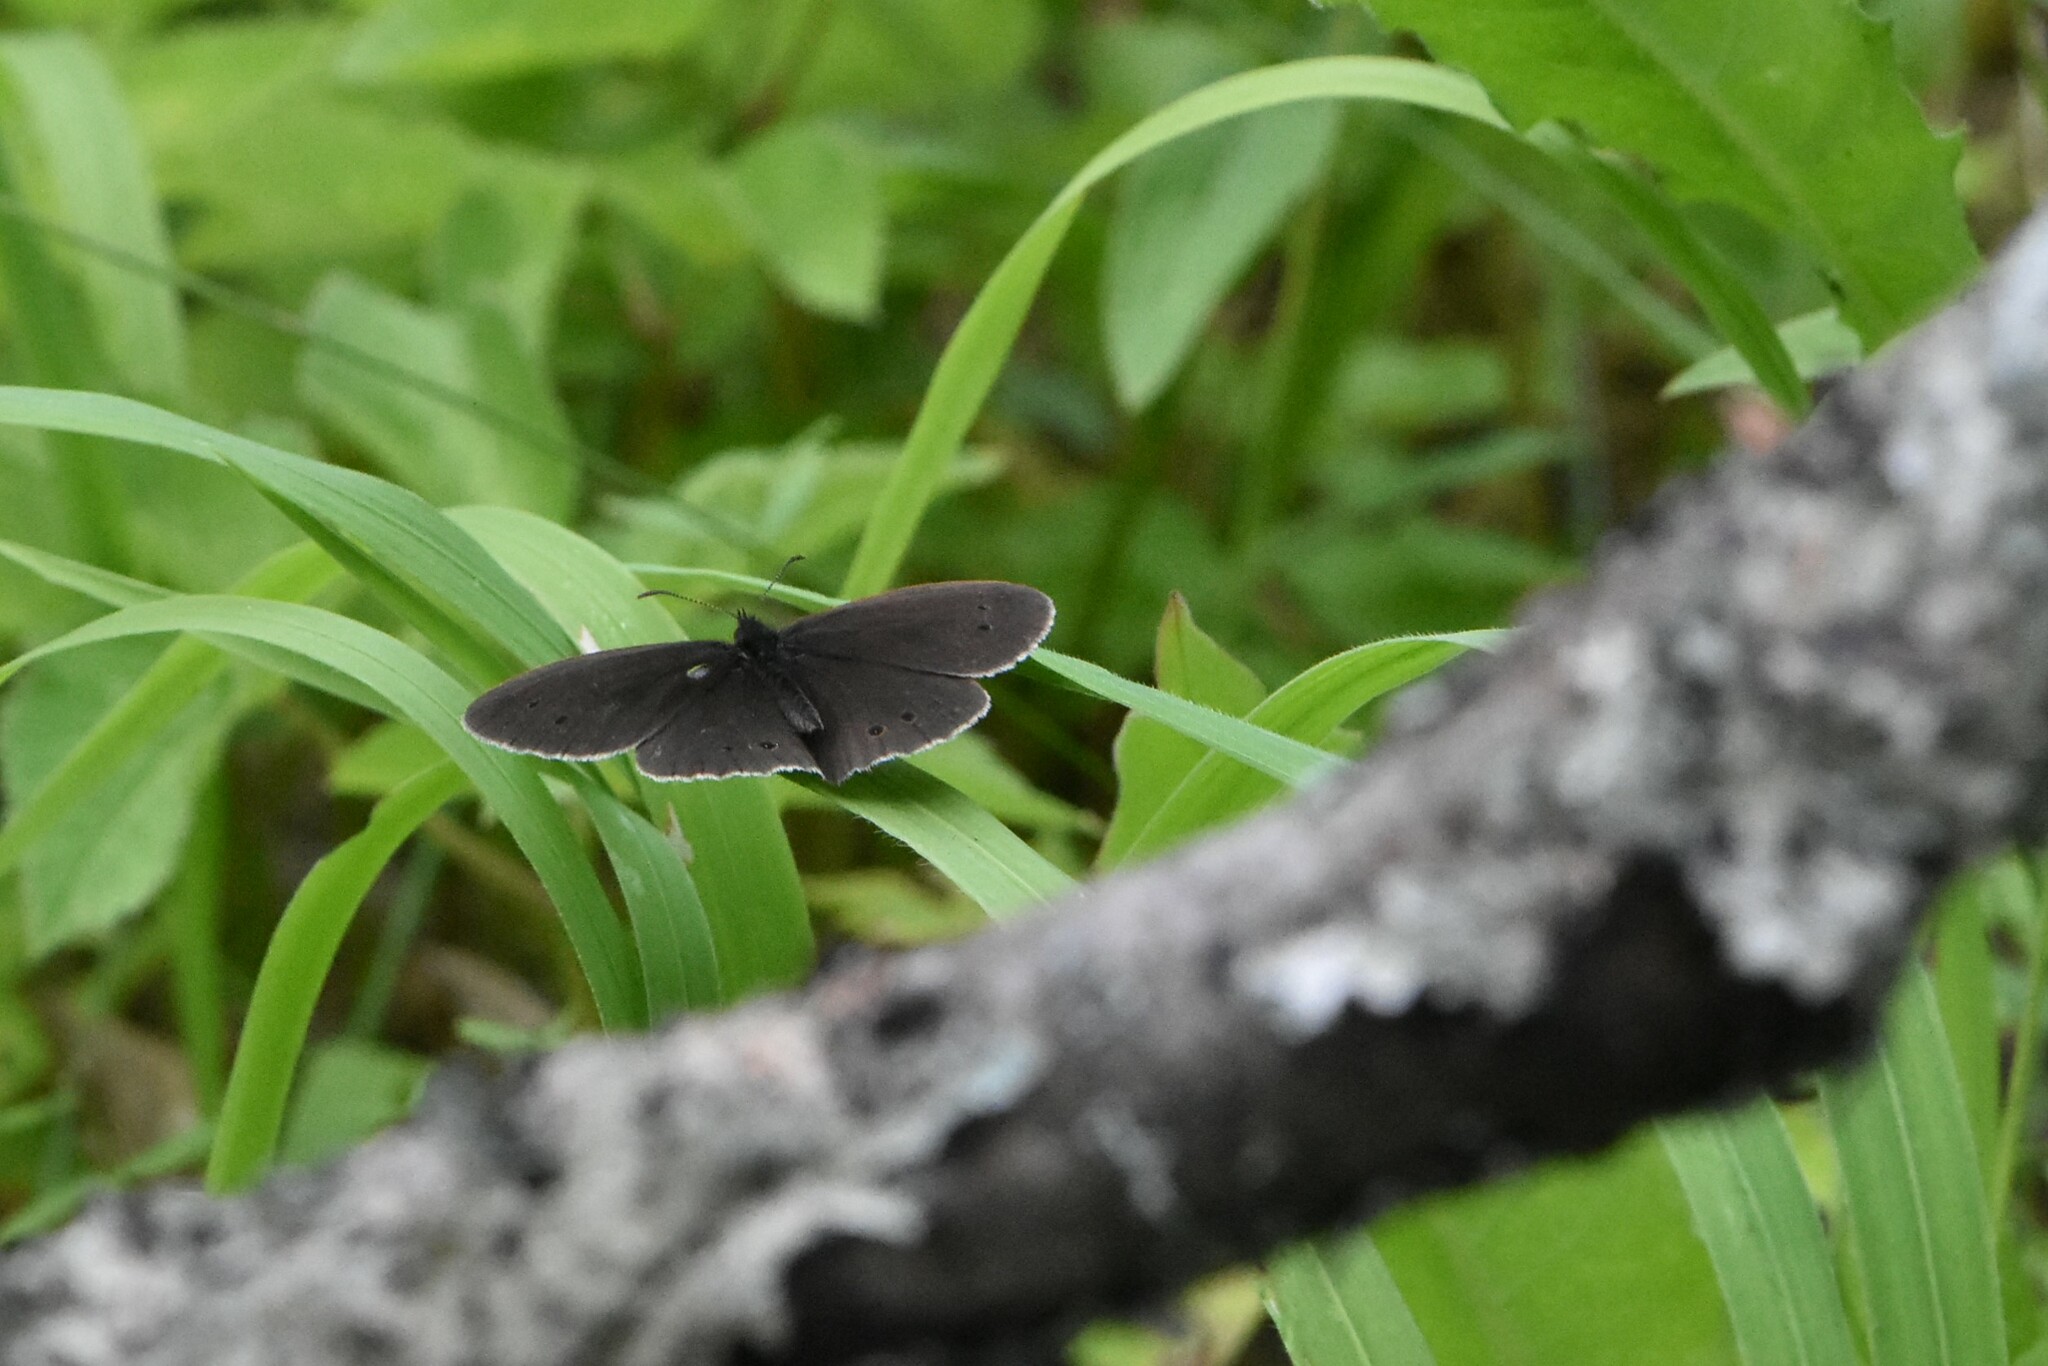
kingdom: Animalia
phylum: Arthropoda
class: Insecta
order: Lepidoptera
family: Nymphalidae
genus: Aphantopus
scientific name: Aphantopus hyperantus
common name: Ringlet
